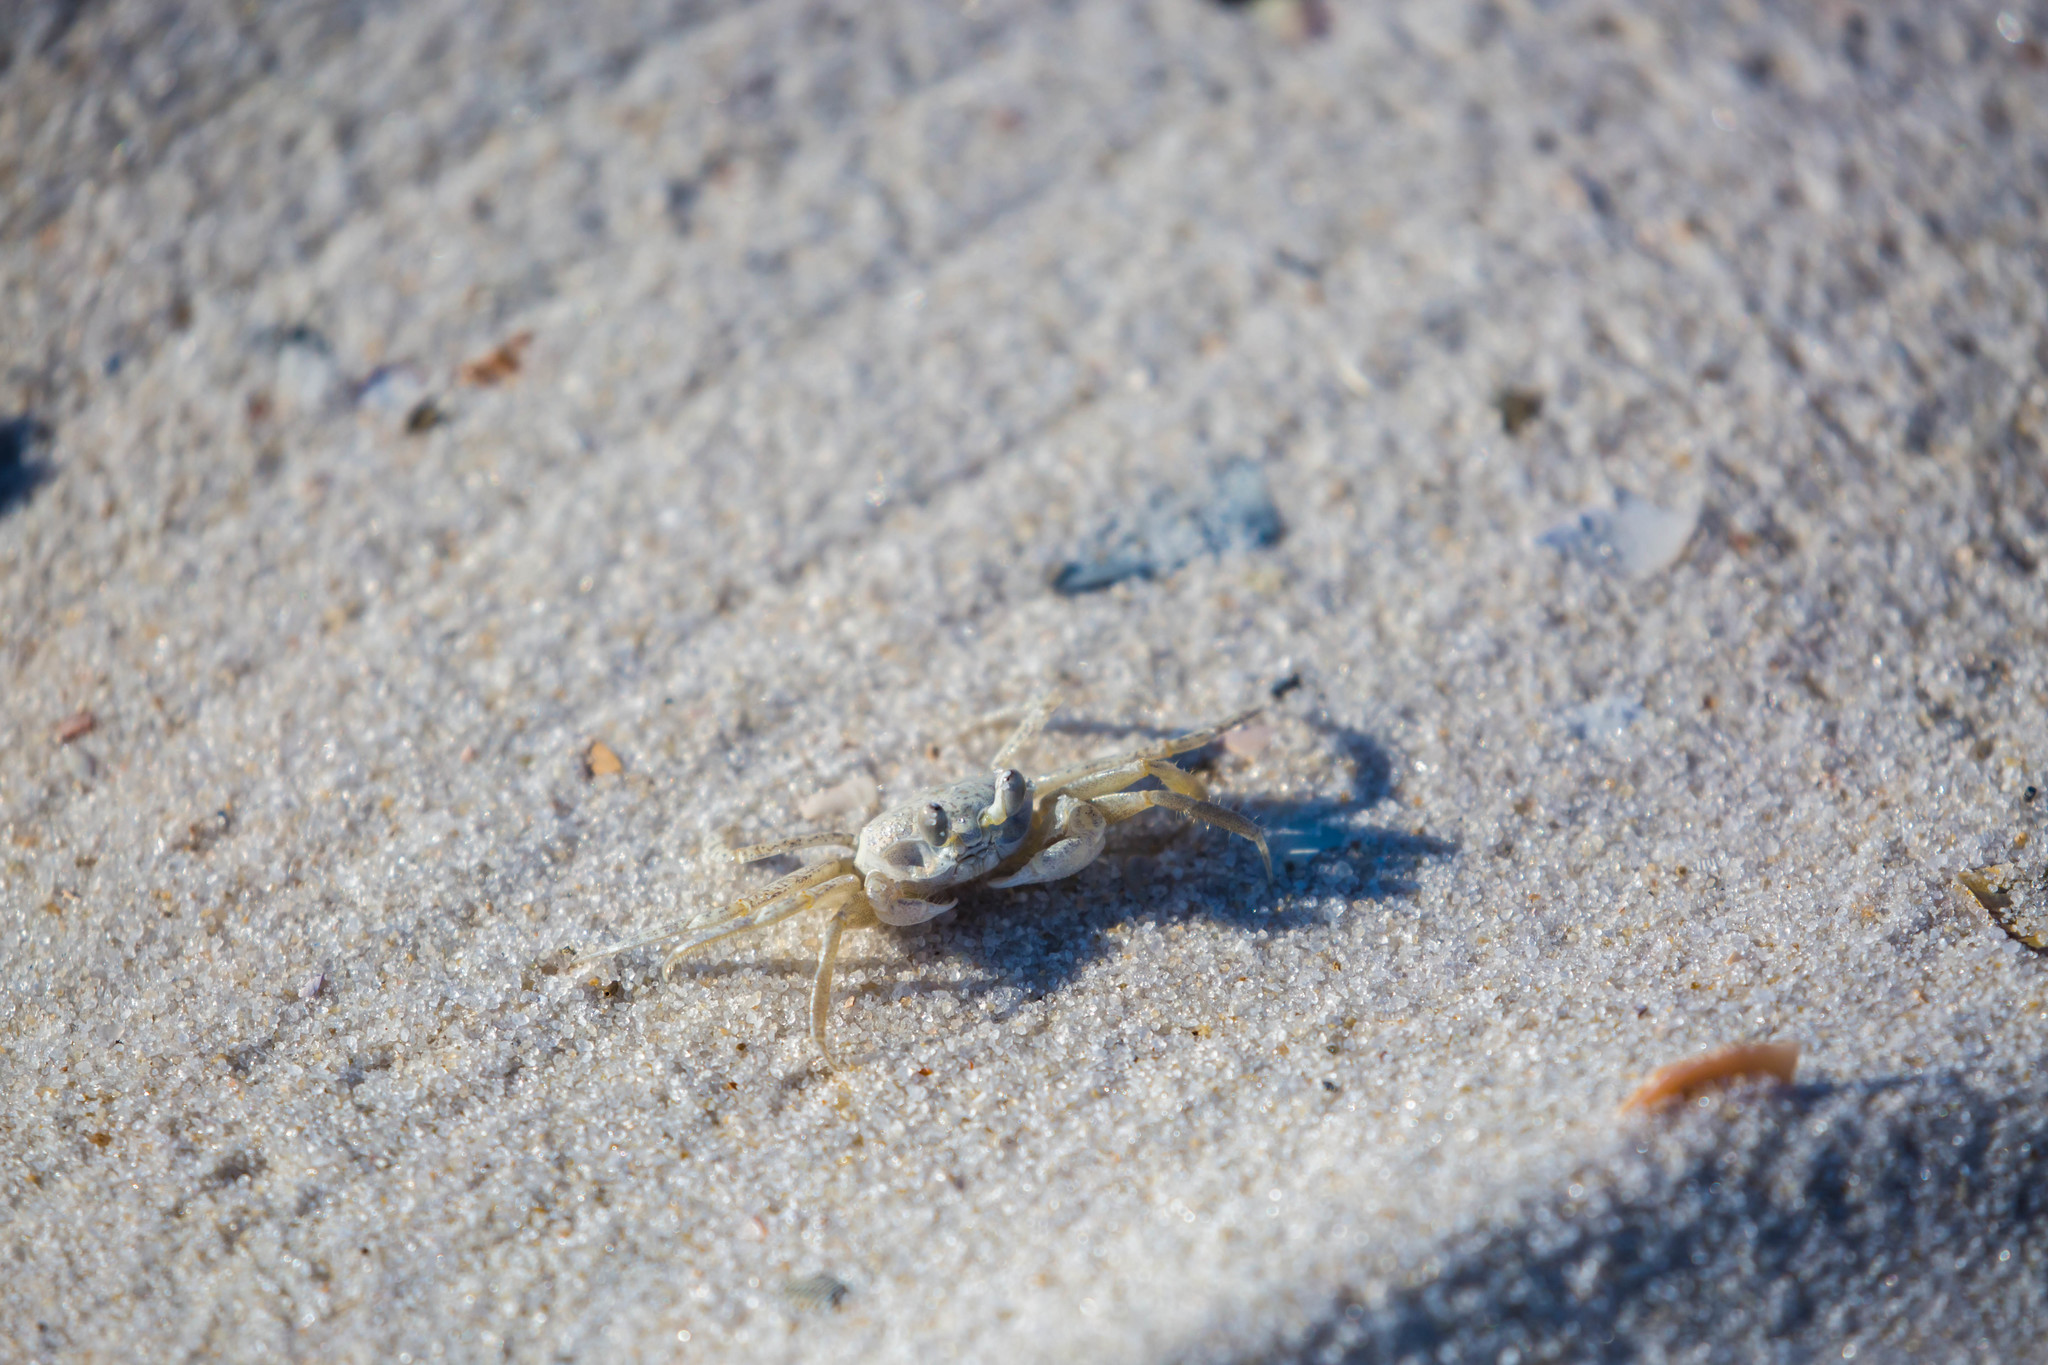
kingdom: Animalia
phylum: Arthropoda
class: Malacostraca
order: Decapoda
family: Ocypodidae
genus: Ocypode
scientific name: Ocypode quadrata
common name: Ghost crab
